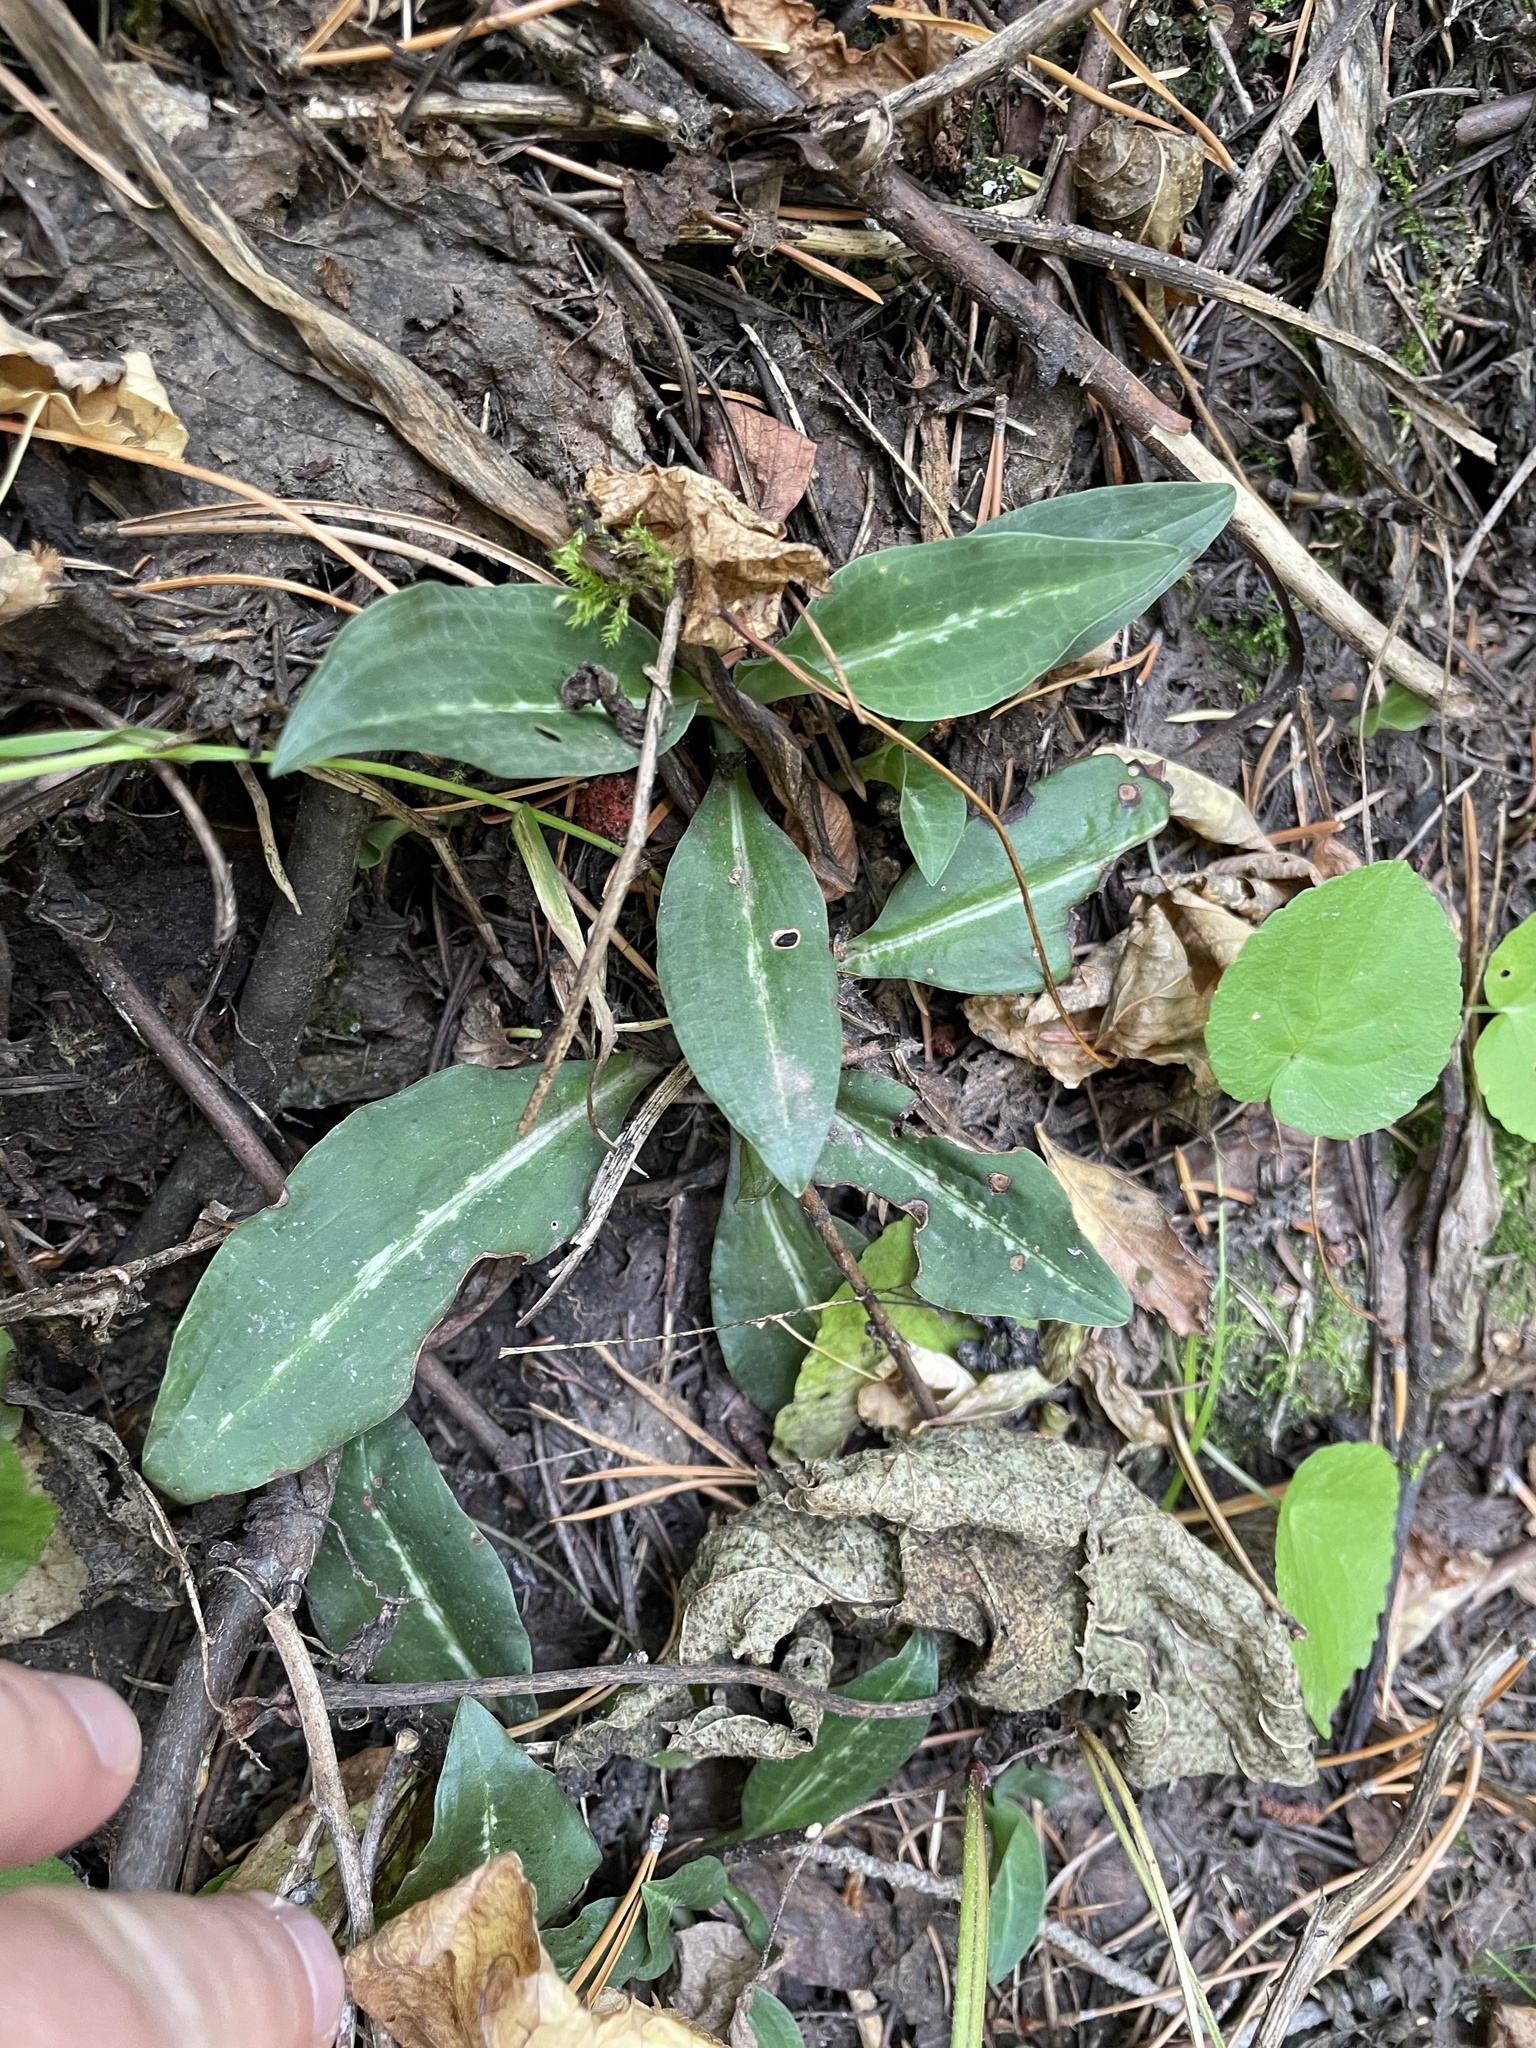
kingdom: Plantae
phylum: Tracheophyta
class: Liliopsida
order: Asparagales
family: Orchidaceae
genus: Goodyera
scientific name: Goodyera oblongifolia
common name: Giant rattlesnake-plantain
